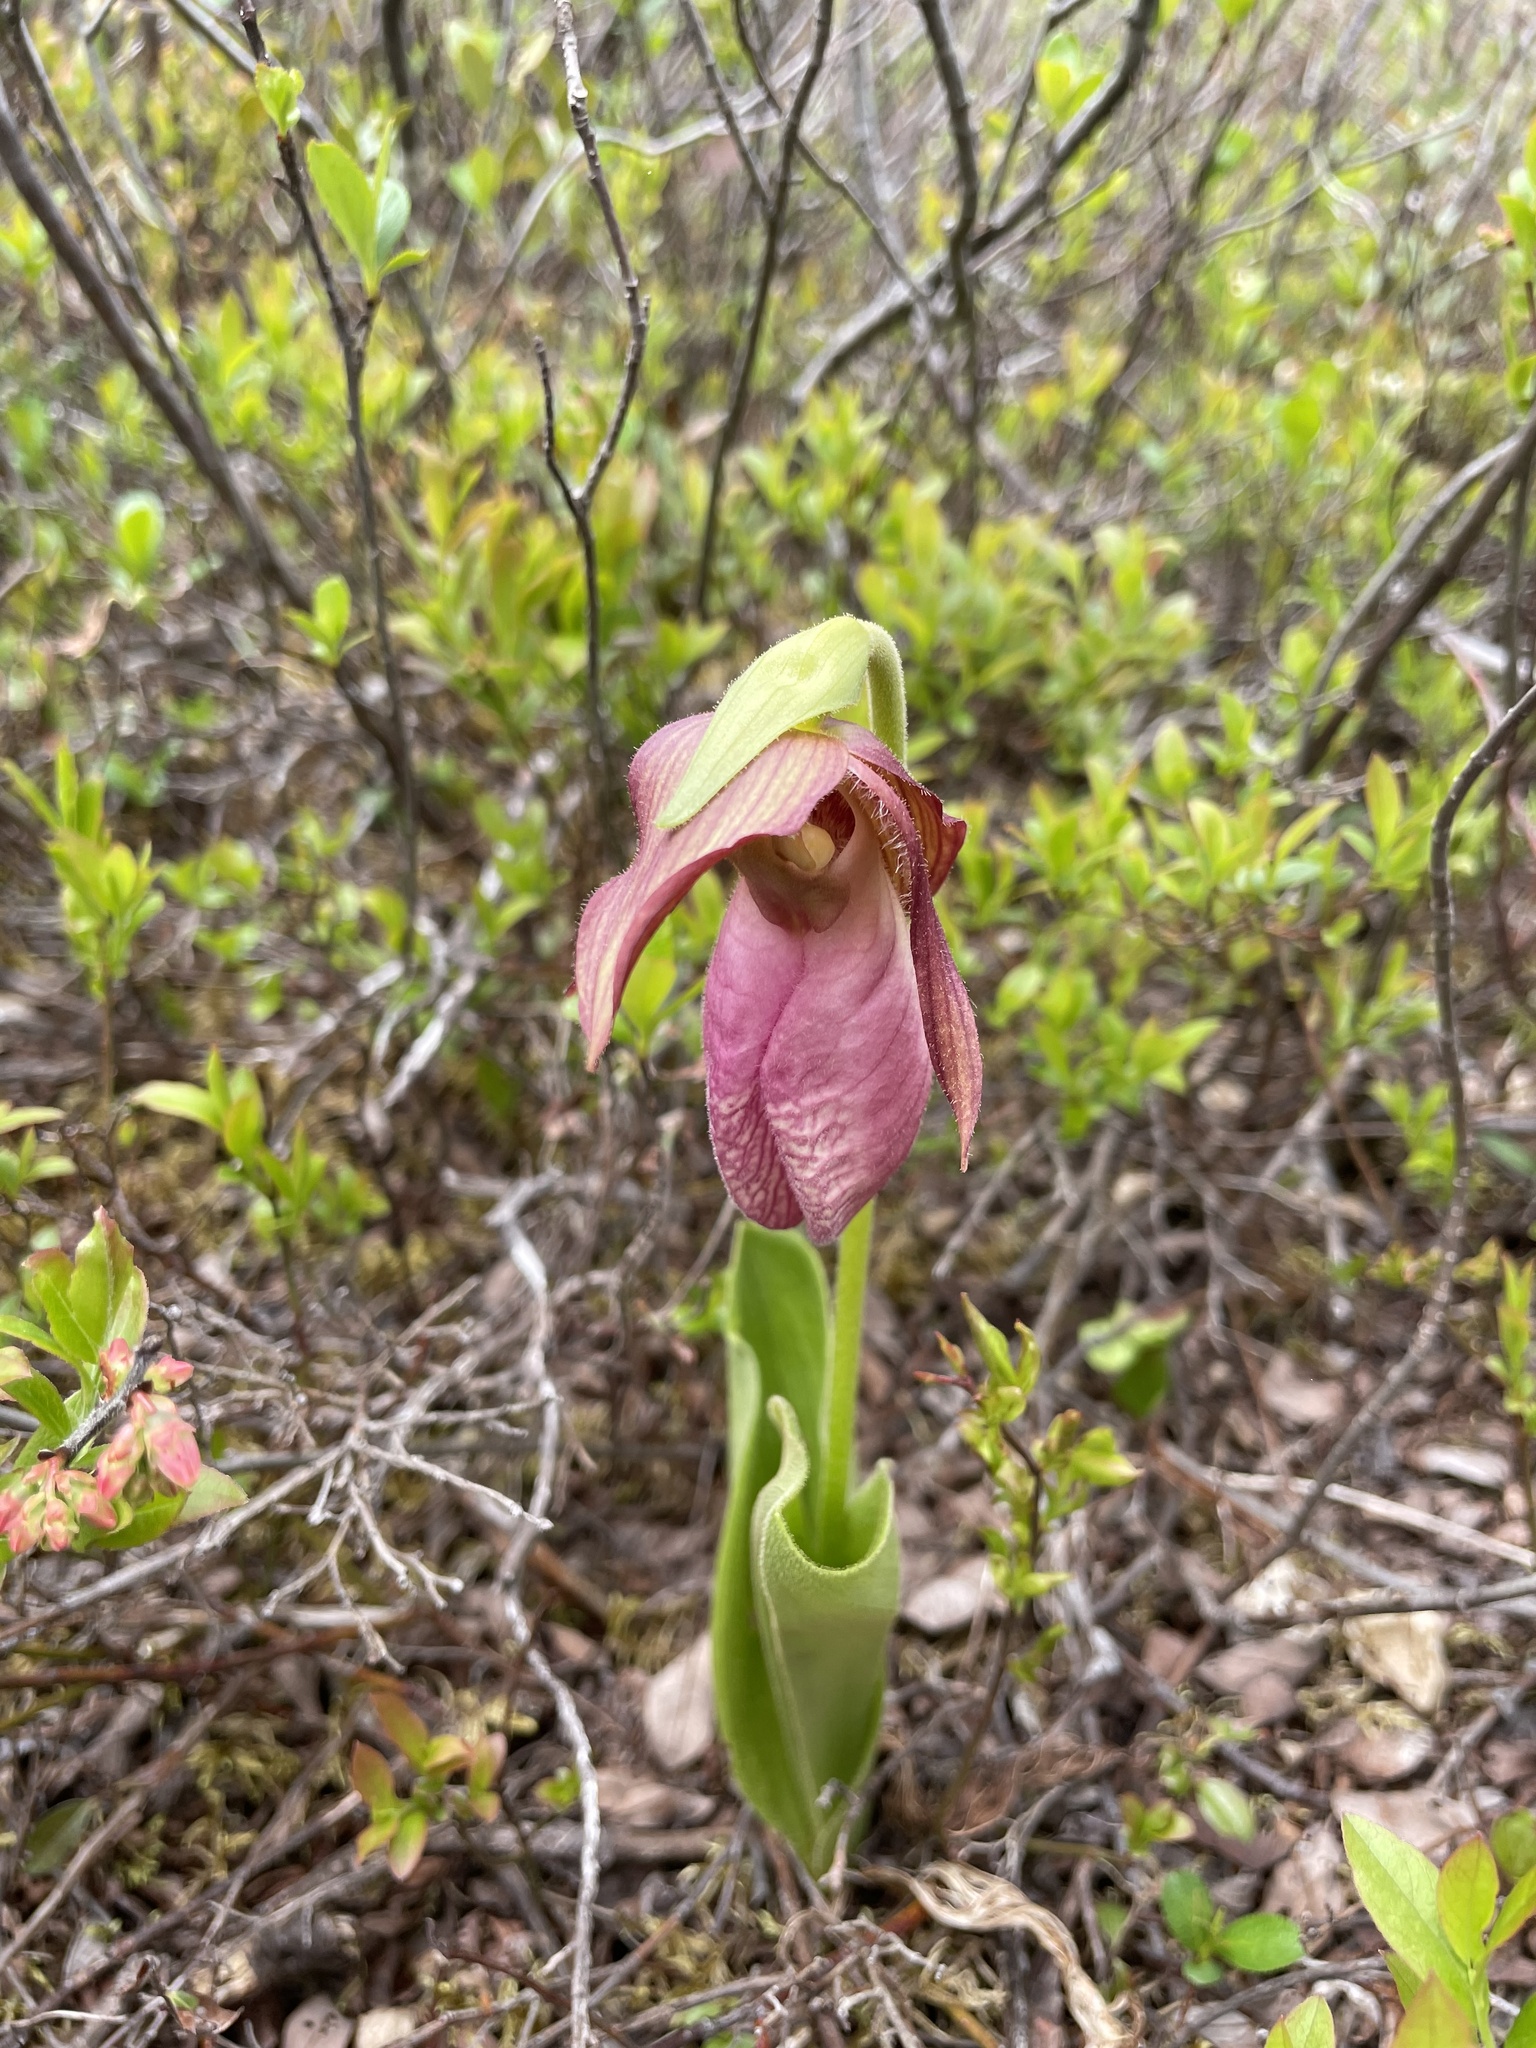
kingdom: Plantae
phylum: Tracheophyta
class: Liliopsida
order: Asparagales
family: Orchidaceae
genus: Cypripedium
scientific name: Cypripedium acaule
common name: Pink lady's-slipper
